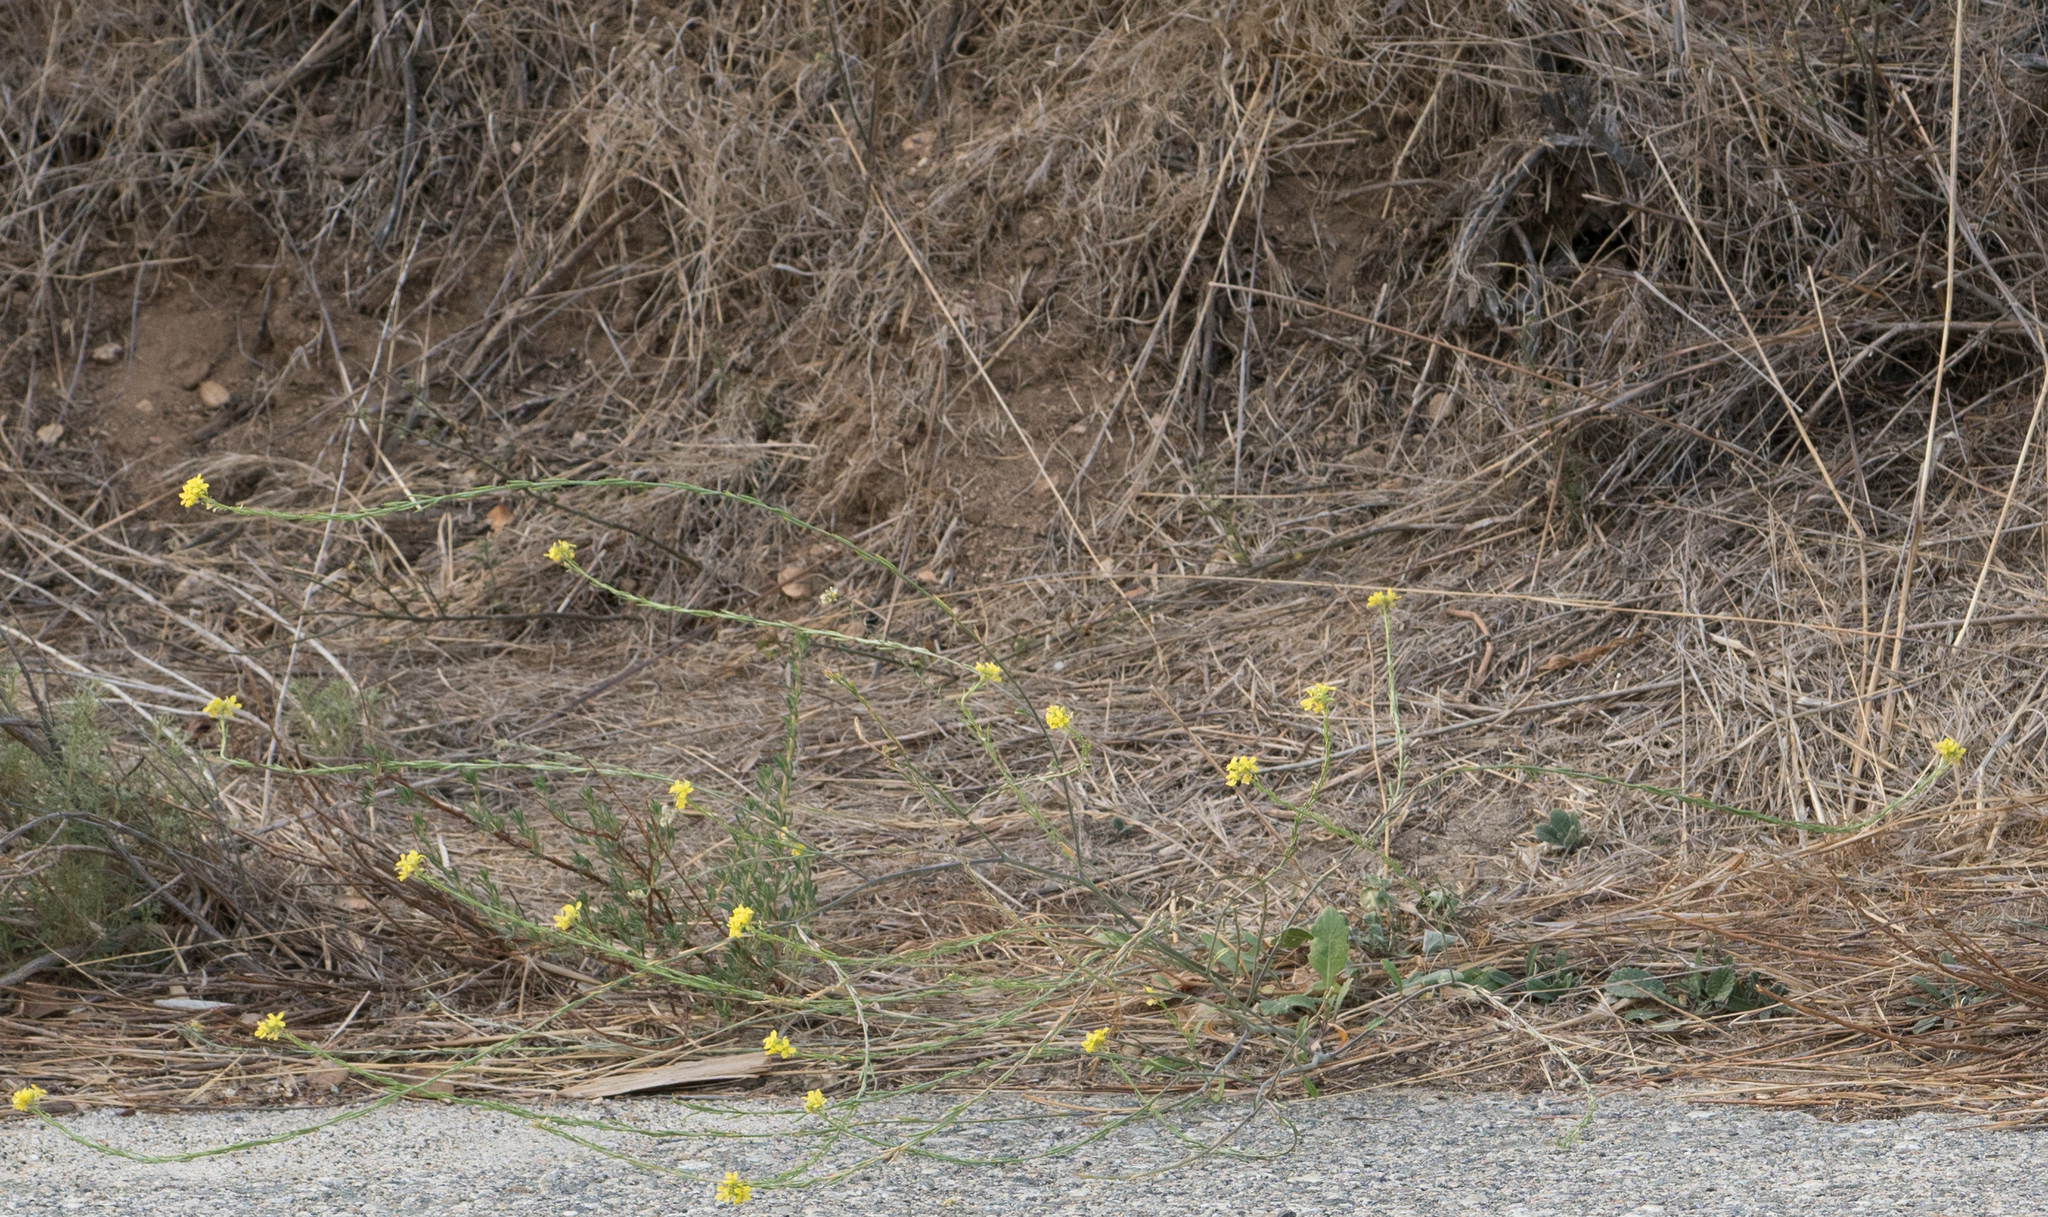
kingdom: Plantae
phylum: Tracheophyta
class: Magnoliopsida
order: Brassicales
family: Brassicaceae
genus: Hirschfeldia
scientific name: Hirschfeldia incana
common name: Hoary mustard
